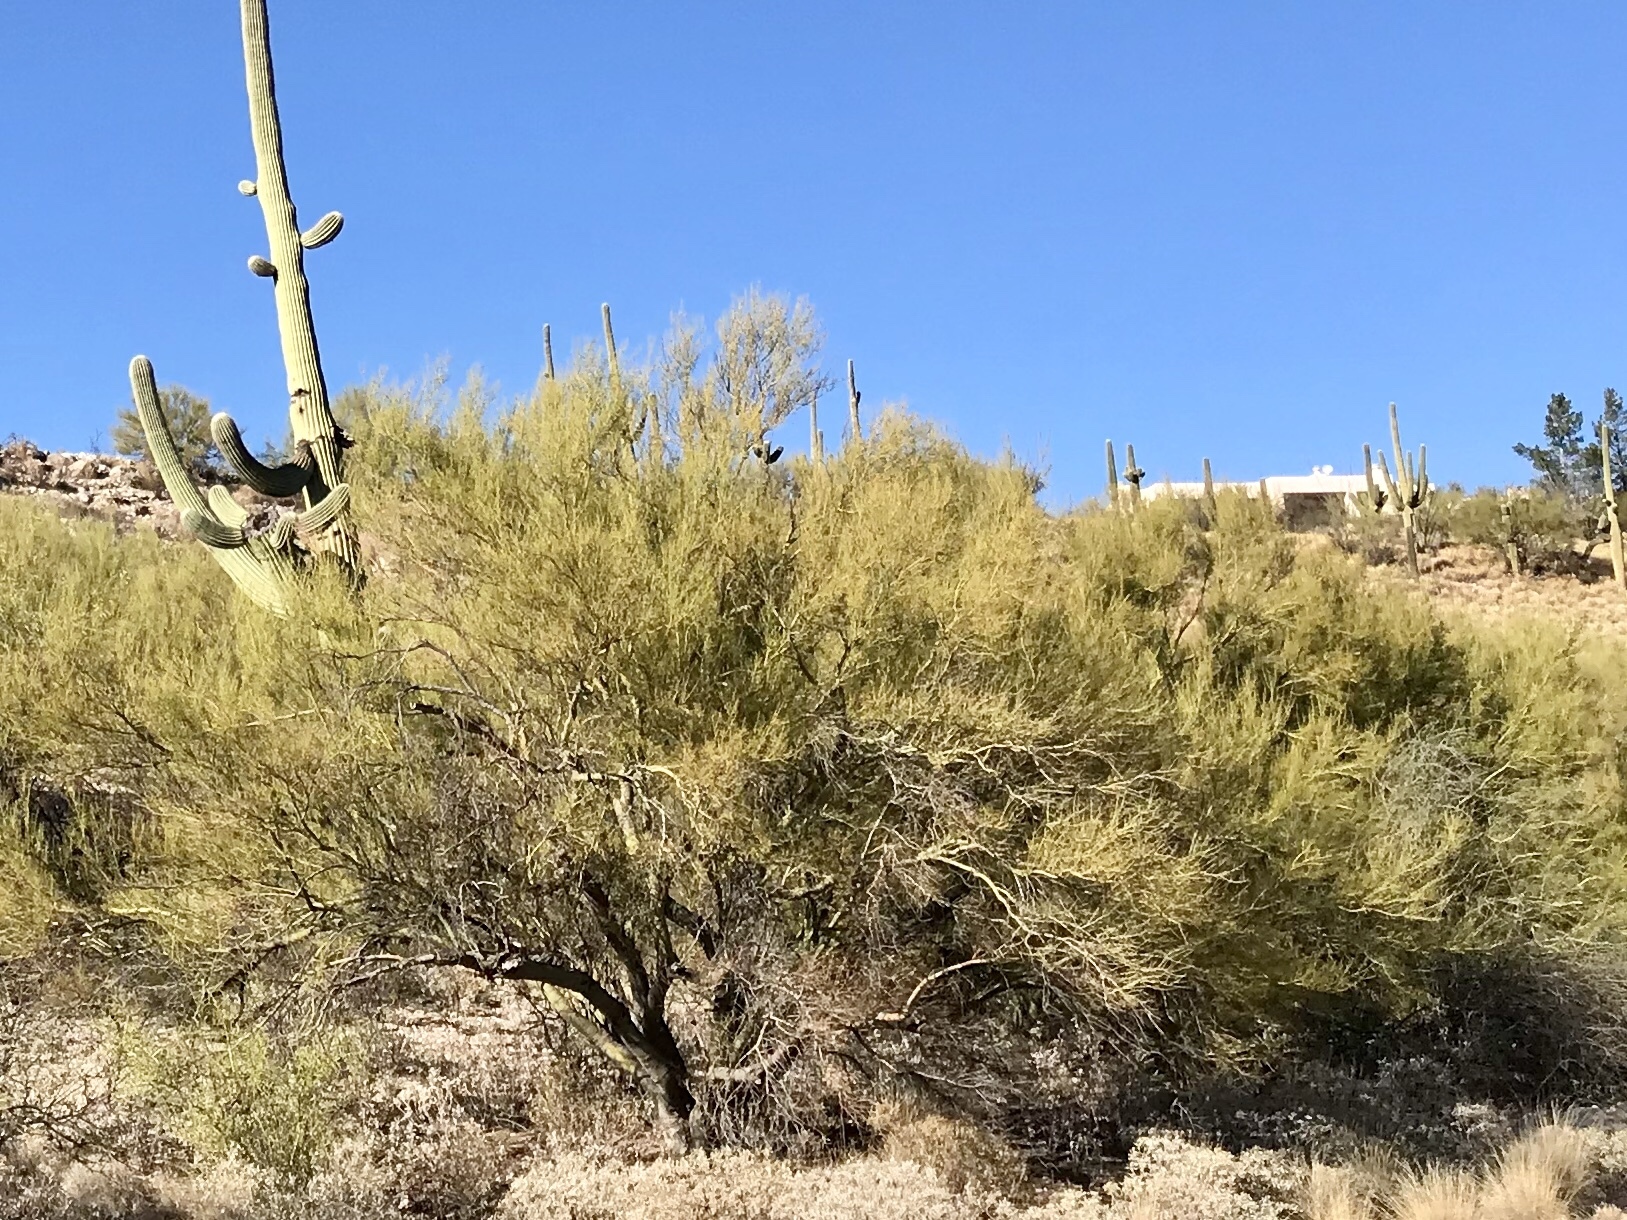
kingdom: Plantae
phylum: Tracheophyta
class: Magnoliopsida
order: Fabales
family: Fabaceae
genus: Parkinsonia
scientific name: Parkinsonia microphylla
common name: Yellow paloverde
